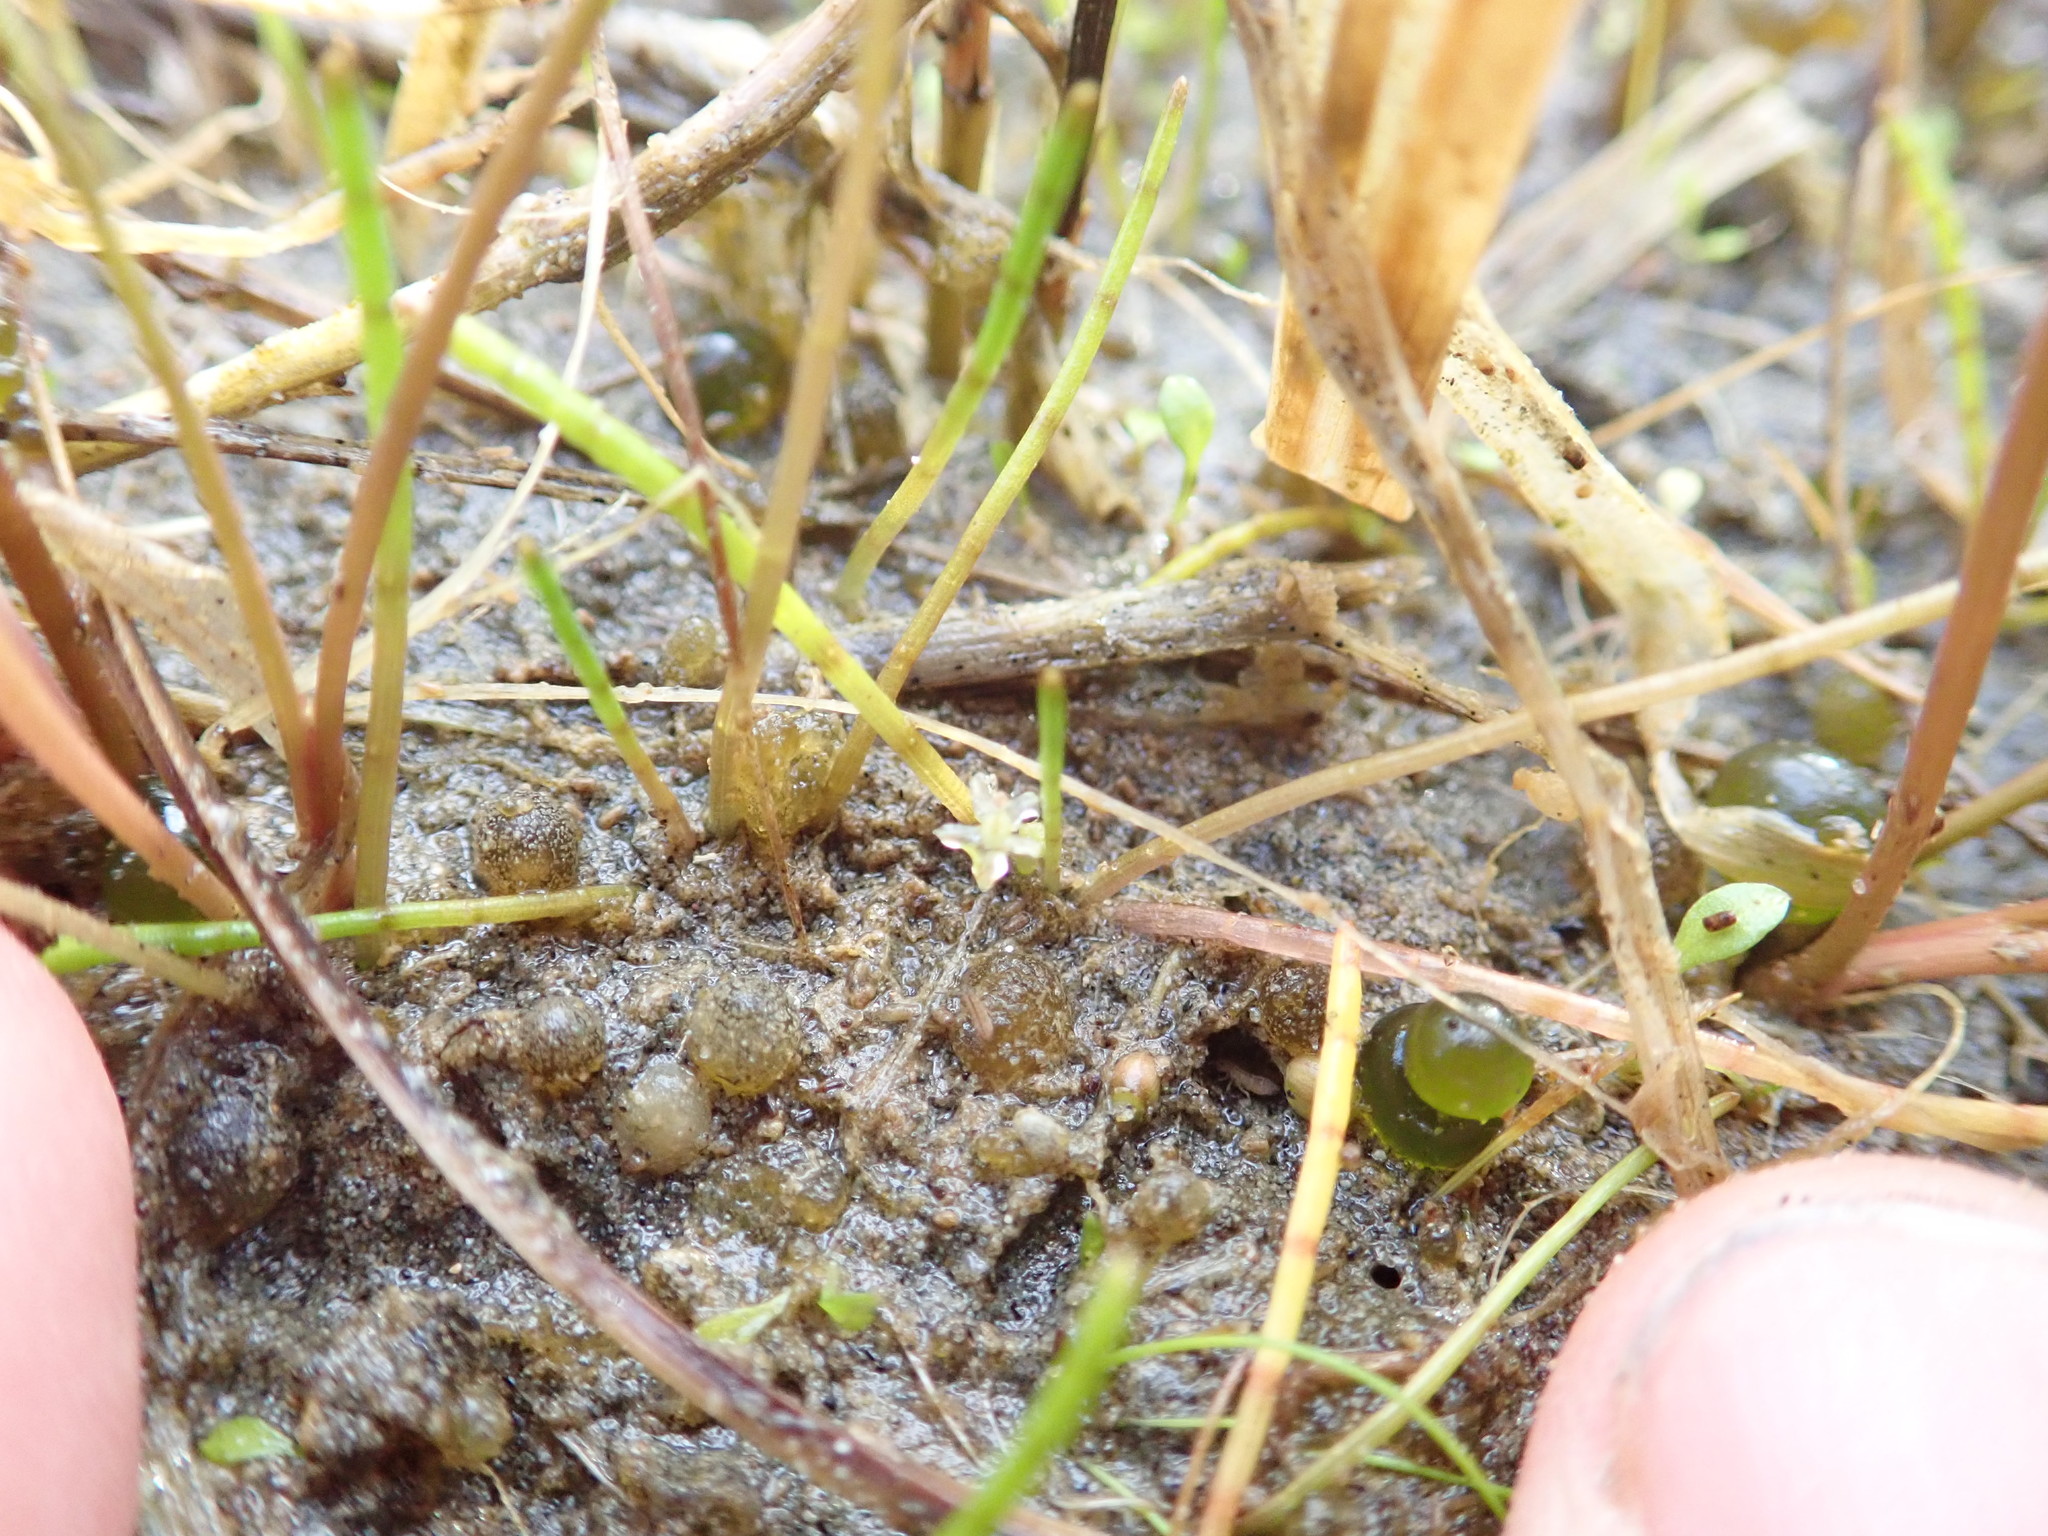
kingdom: Plantae
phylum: Tracheophyta
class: Magnoliopsida
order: Apiales
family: Apiaceae
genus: Lilaeopsis
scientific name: Lilaeopsis novae-zelandiae
